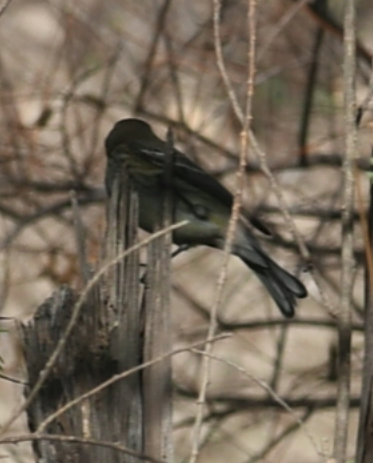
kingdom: Animalia
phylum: Chordata
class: Aves
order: Passeriformes
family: Parulidae
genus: Setophaga
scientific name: Setophaga auduboni
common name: Audubon's warbler
